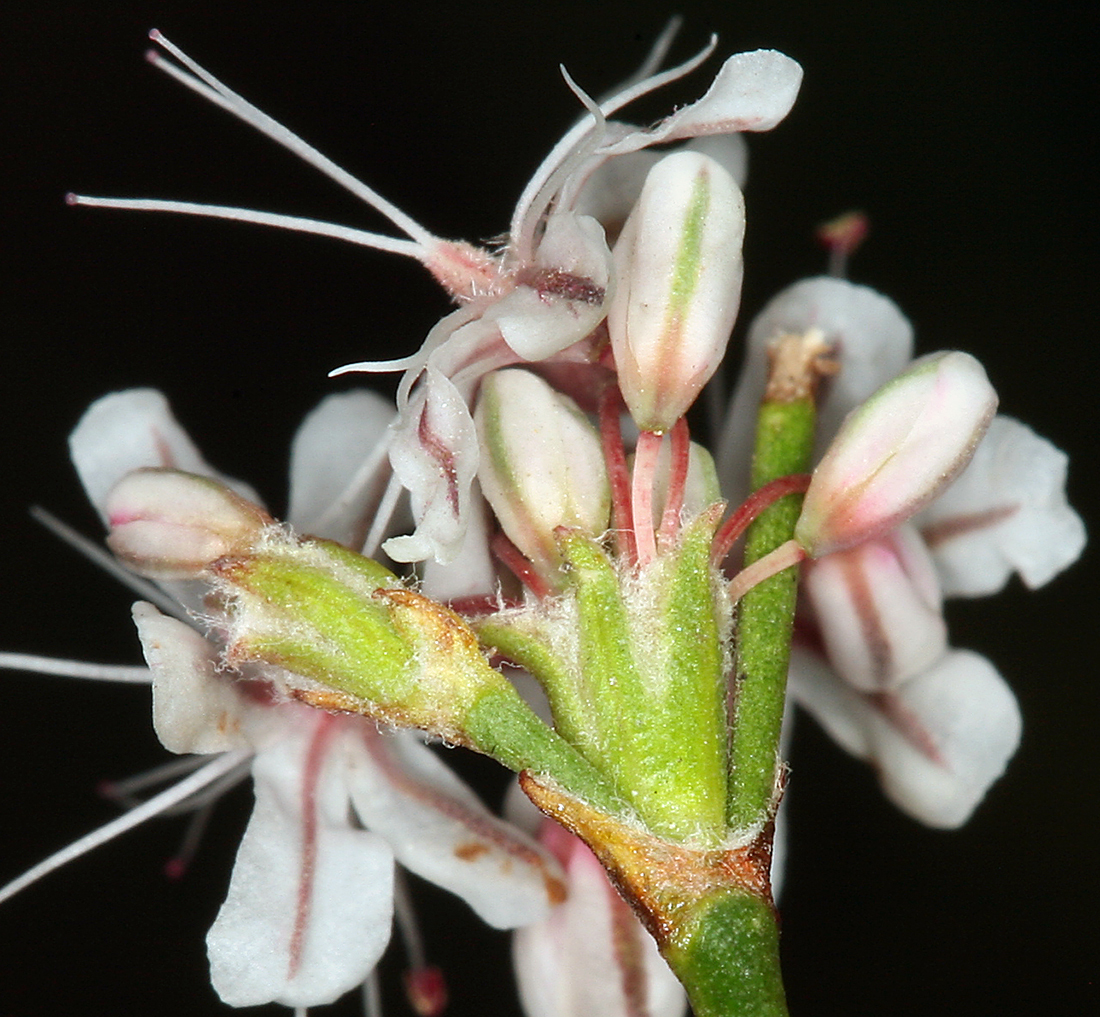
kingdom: Plantae
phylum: Tracheophyta
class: Magnoliopsida
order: Caryophyllales
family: Polygonaceae
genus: Eriogonum
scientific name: Eriogonum wrightii
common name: Bastard-sage
